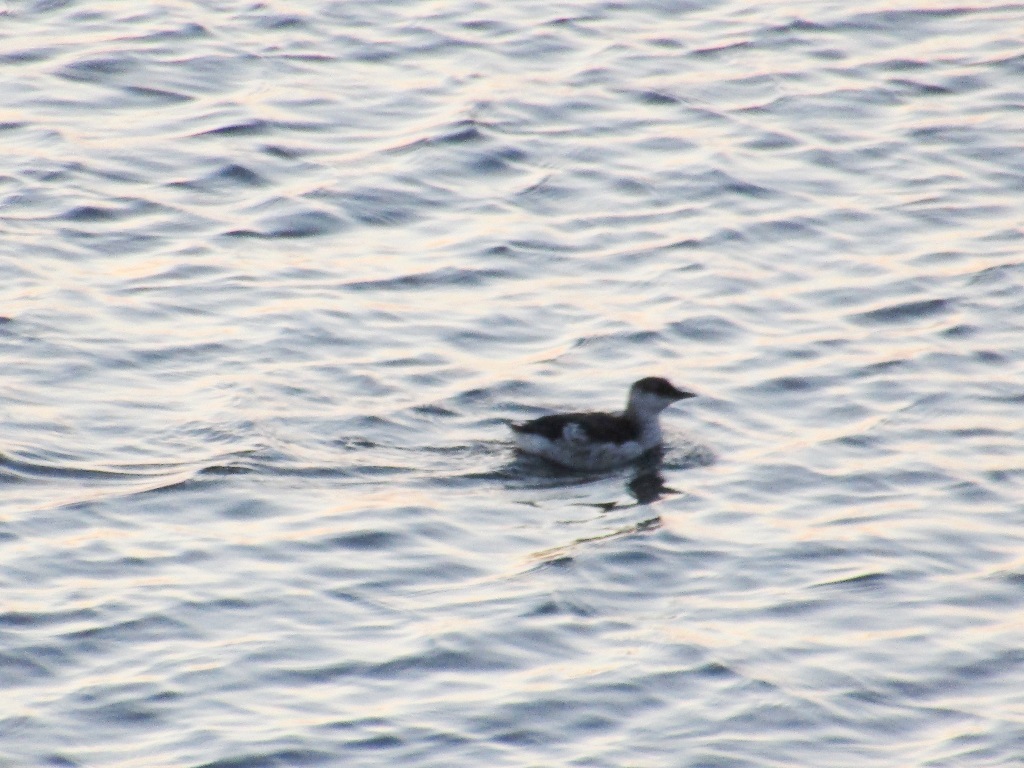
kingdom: Animalia
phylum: Chordata
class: Aves
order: Charadriiformes
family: Alcidae
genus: Cepphus
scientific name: Cepphus grylle
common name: Black guillemot
